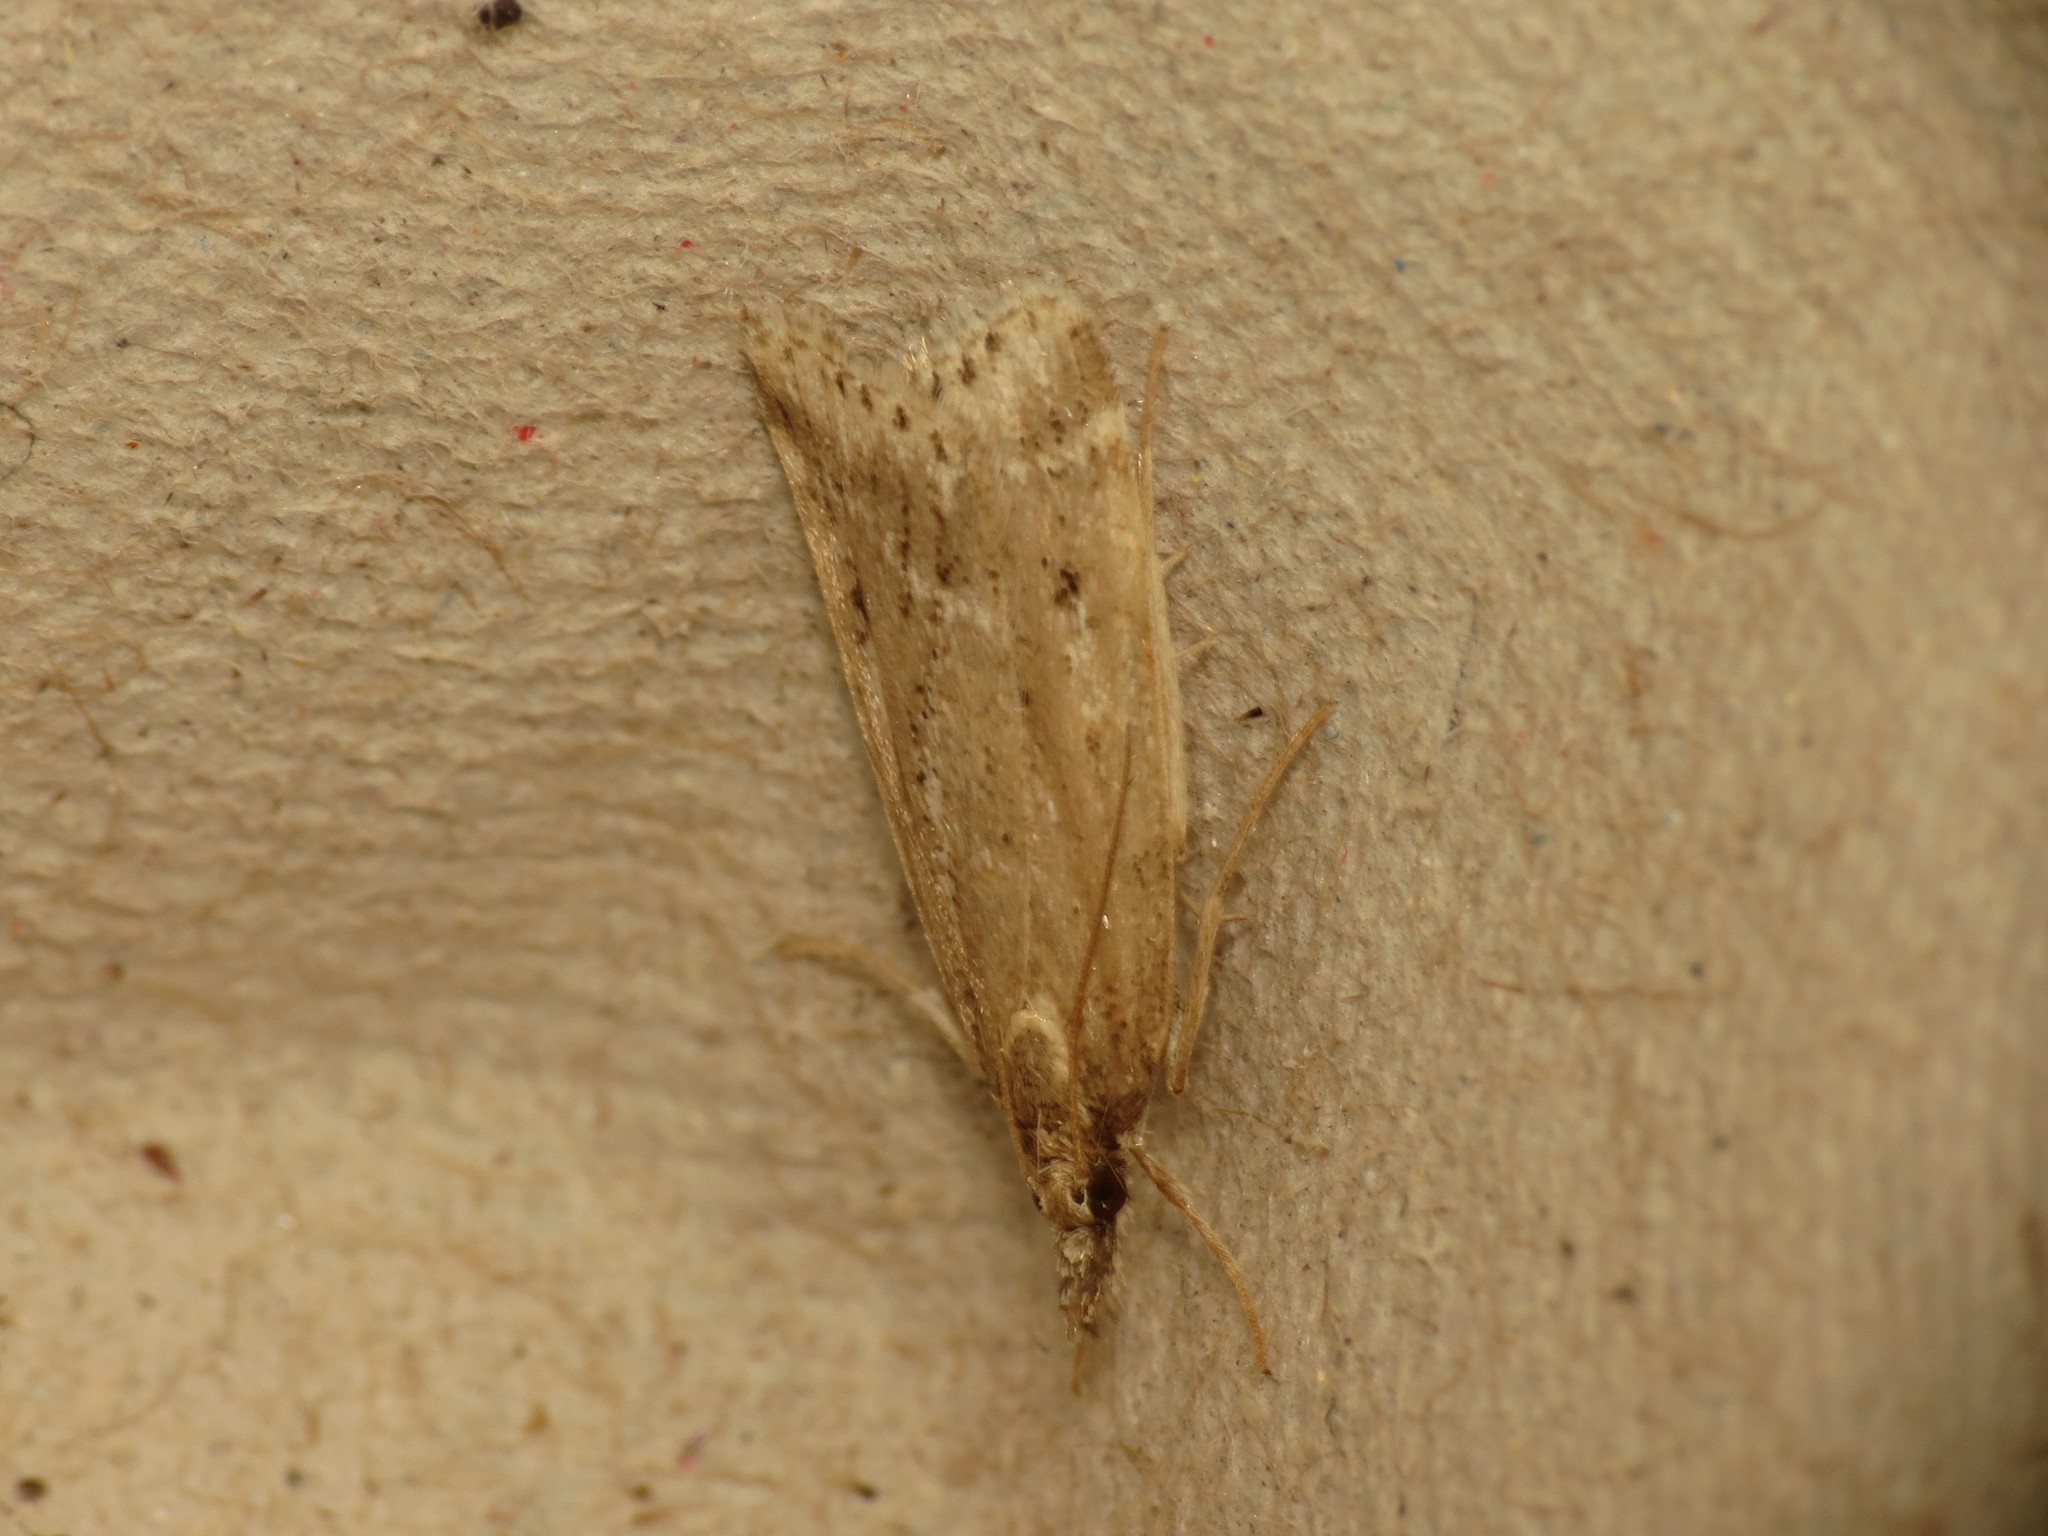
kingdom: Animalia
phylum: Arthropoda
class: Insecta
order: Lepidoptera
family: Crambidae
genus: Eudonia
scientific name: Eudonia truncicolella
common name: Ground-moss grey
